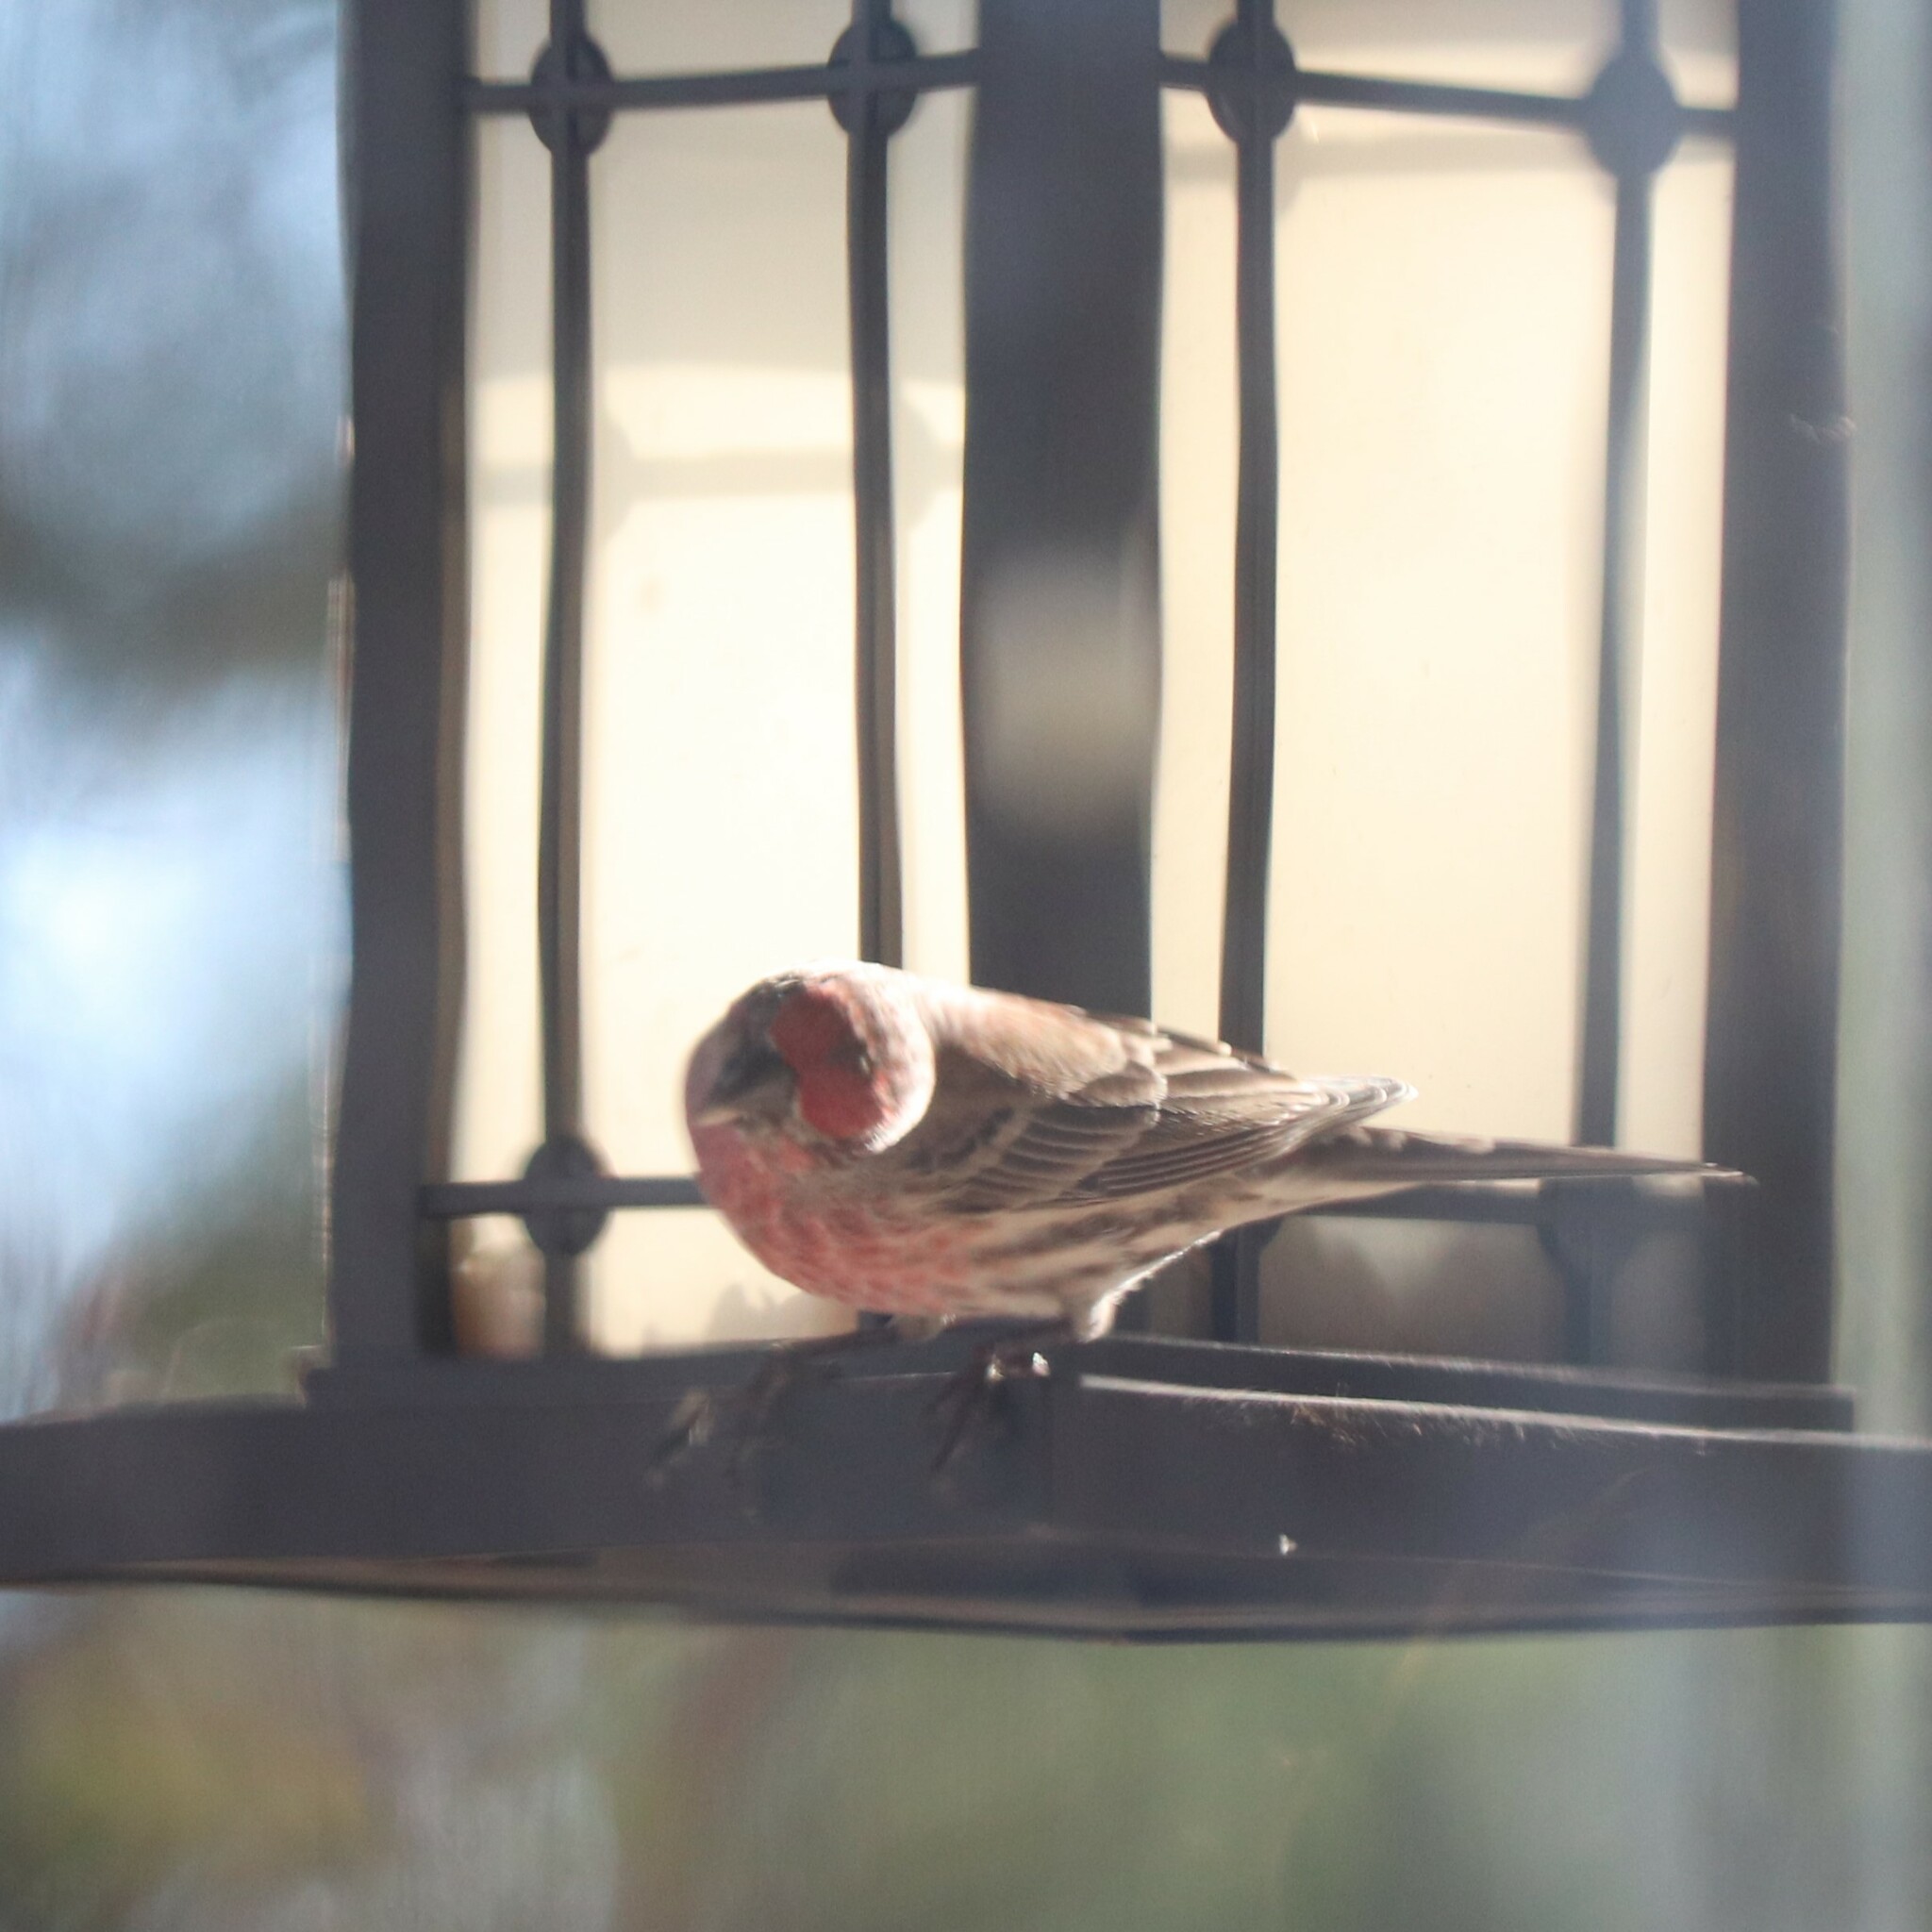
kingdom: Animalia
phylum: Chordata
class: Aves
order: Passeriformes
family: Fringillidae
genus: Haemorhous
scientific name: Haemorhous mexicanus
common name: House finch
